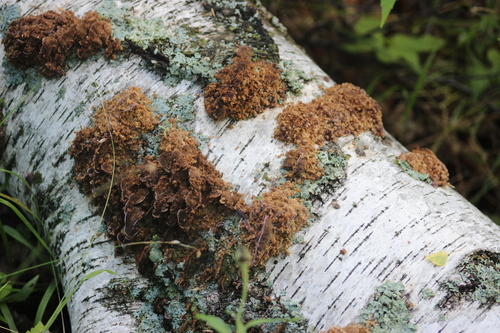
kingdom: Fungi
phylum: Basidiomycota
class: Agaricomycetes
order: Hymenochaetales
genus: Trichaptum
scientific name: Trichaptum biforme
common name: Violet-toothed polypore
